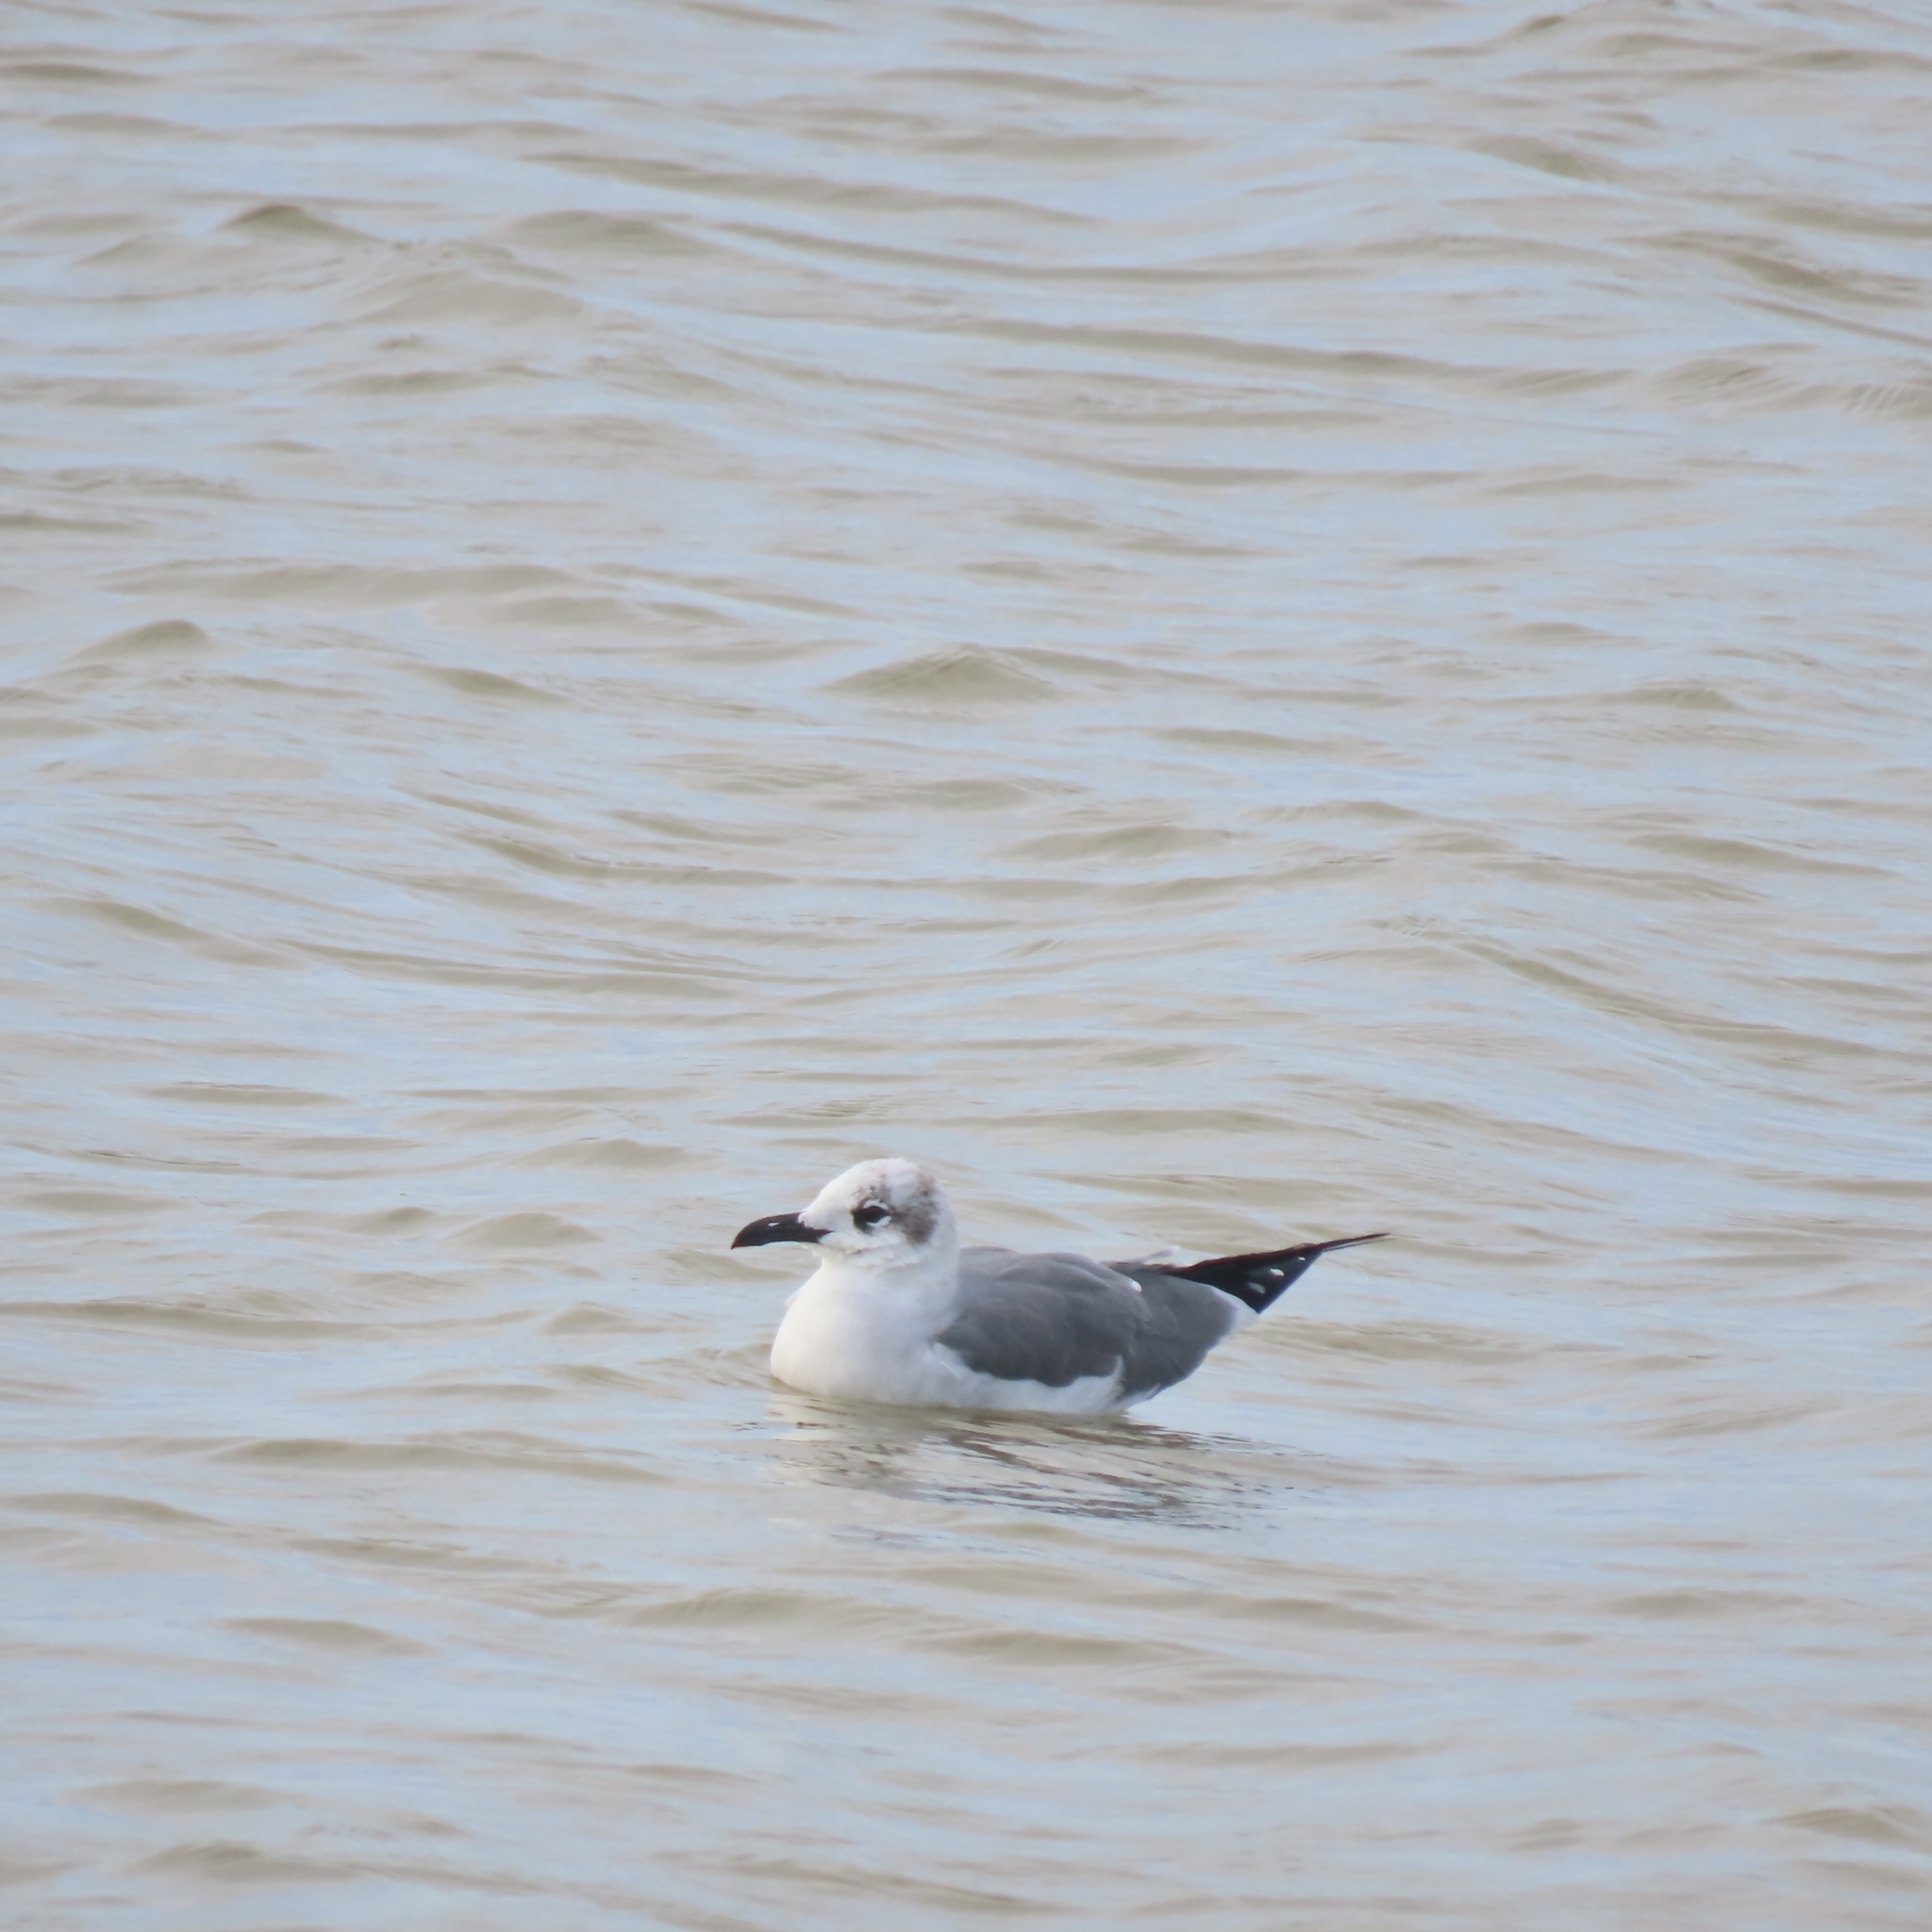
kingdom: Animalia
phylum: Chordata
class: Aves
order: Charadriiformes
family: Laridae
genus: Leucophaeus
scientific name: Leucophaeus atricilla
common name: Laughing gull
